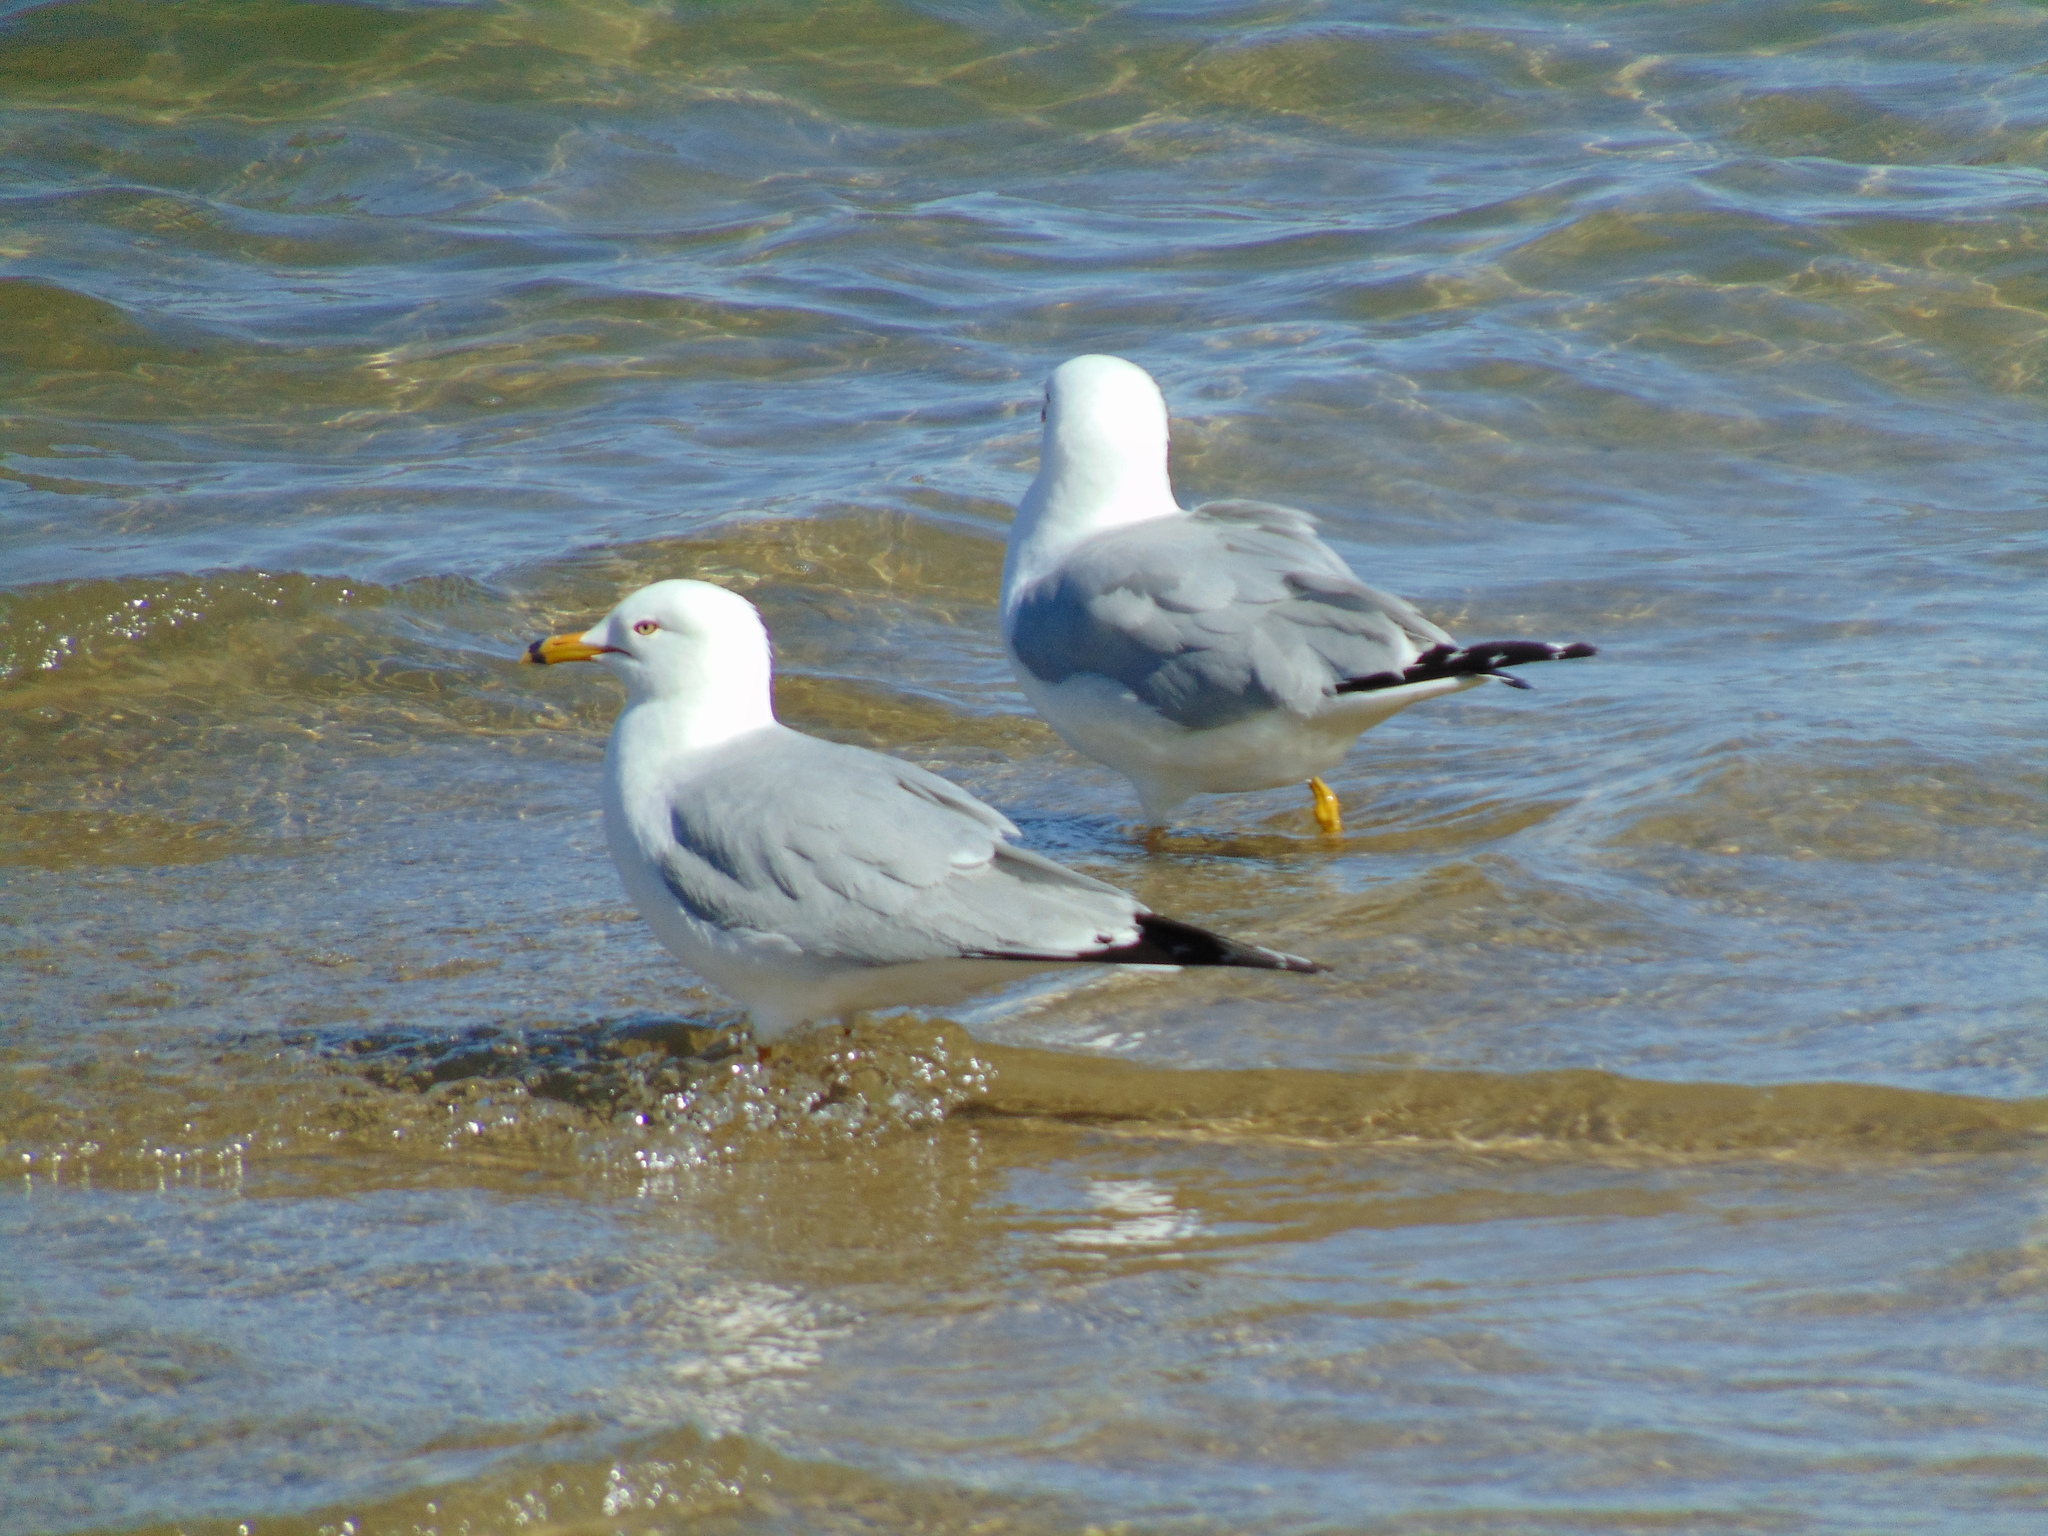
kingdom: Animalia
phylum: Chordata
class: Aves
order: Charadriiformes
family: Laridae
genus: Larus
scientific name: Larus delawarensis
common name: Ring-billed gull
